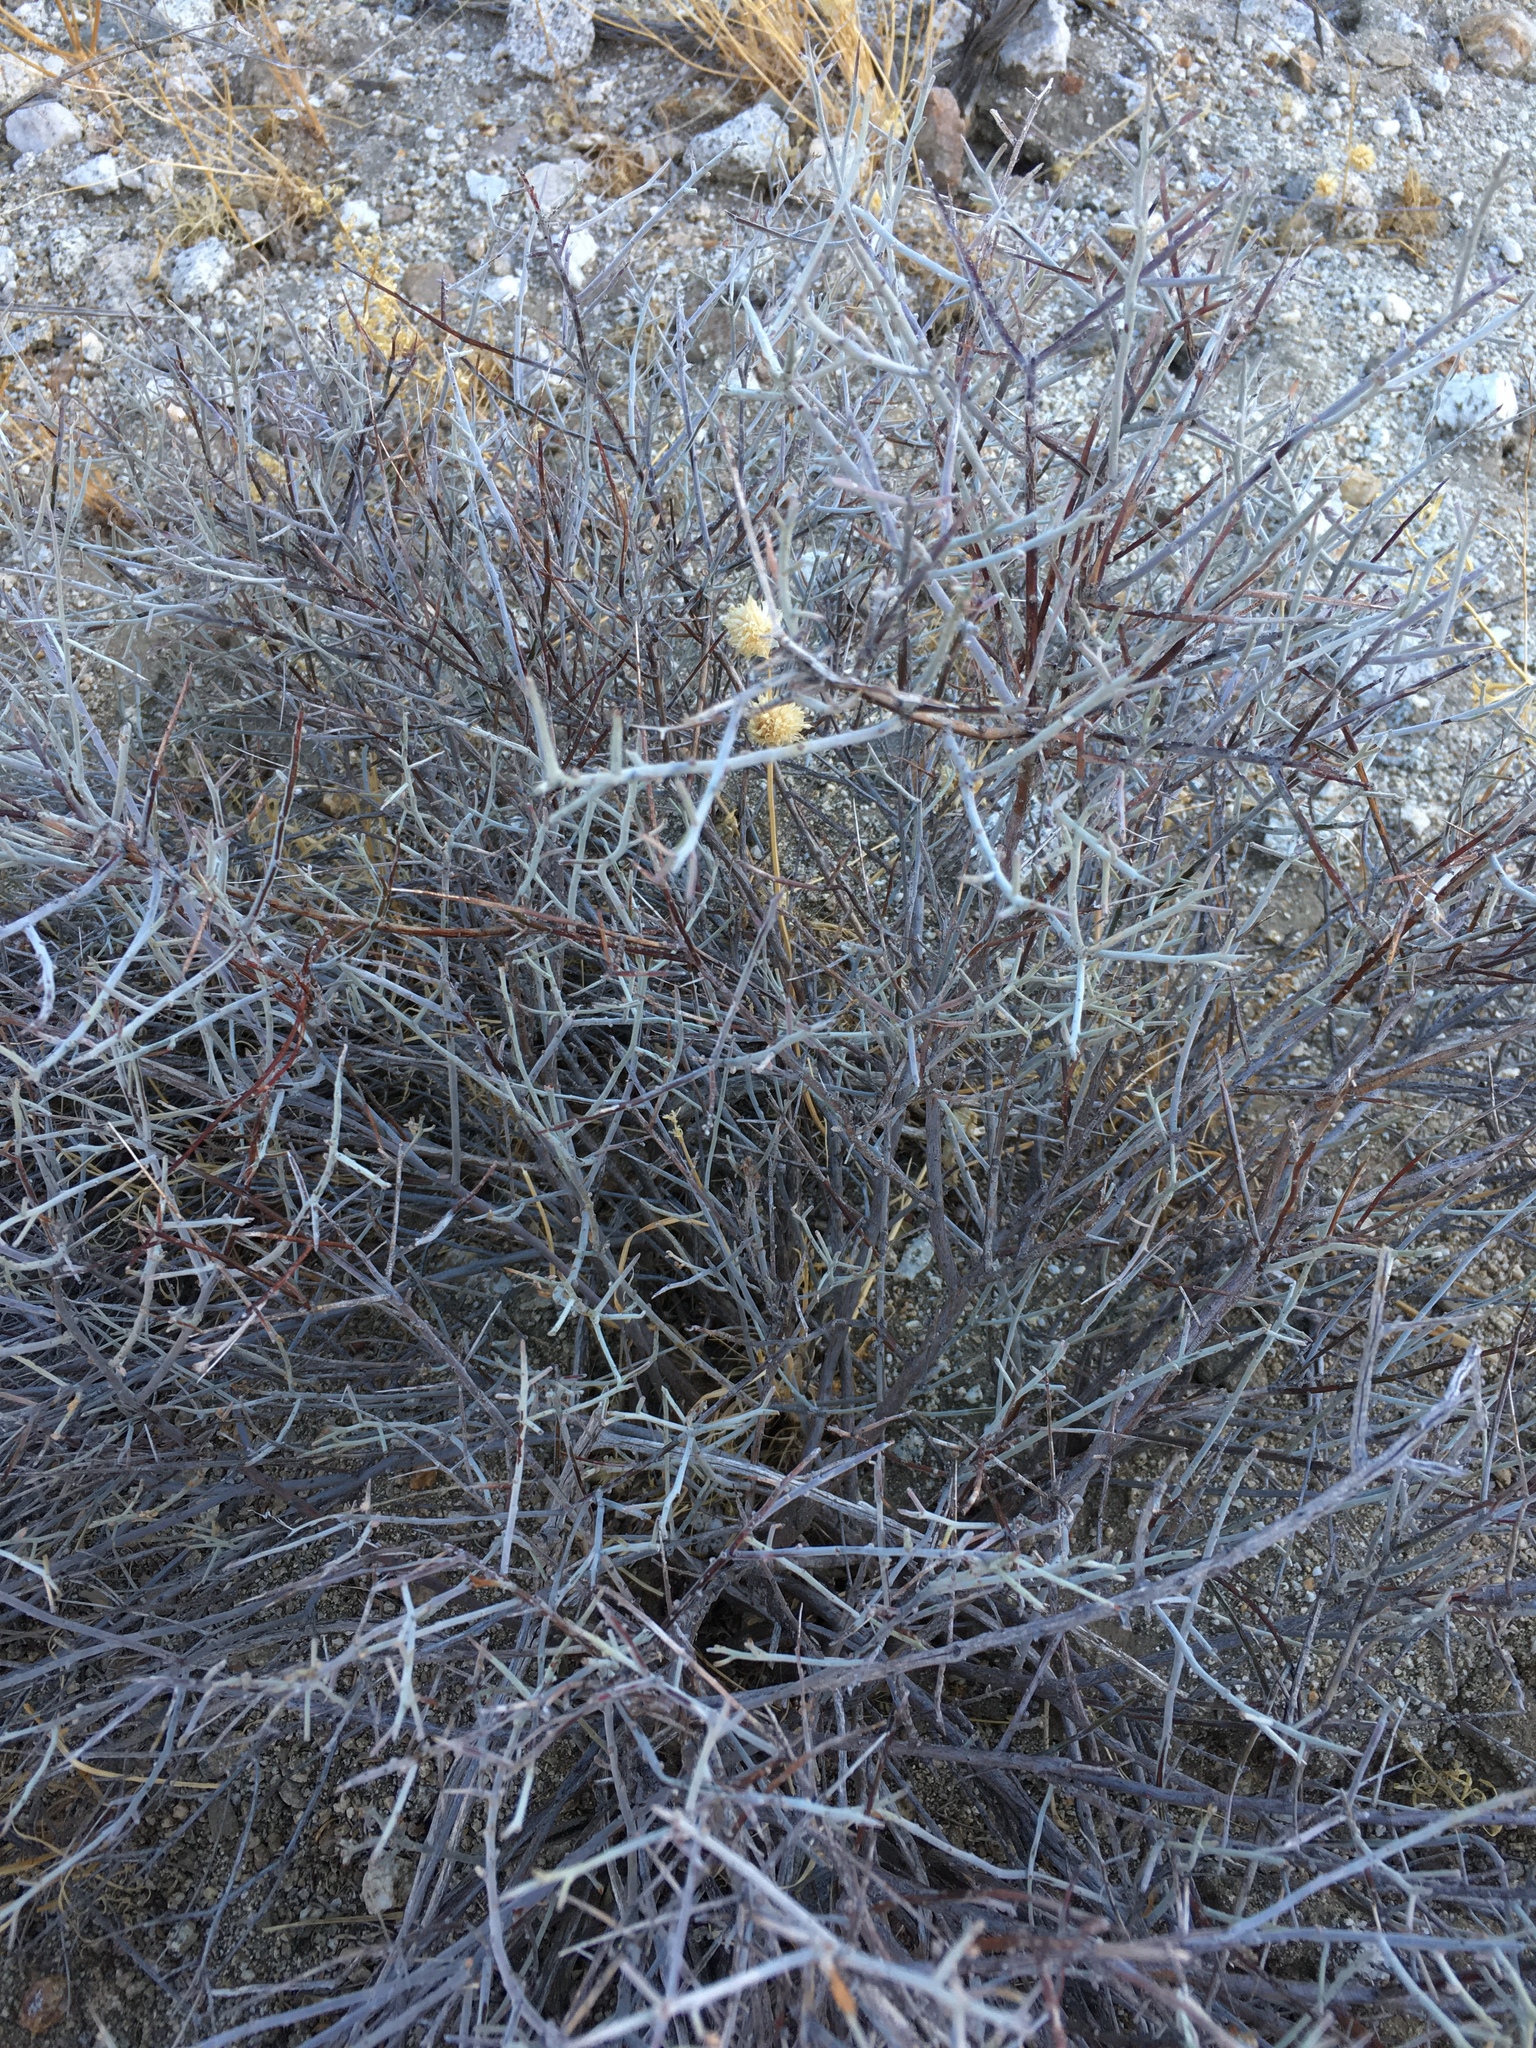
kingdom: Plantae
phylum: Tracheophyta
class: Magnoliopsida
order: Zygophyllales
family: Krameriaceae
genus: Krameria
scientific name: Krameria bicolor
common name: White ratany
